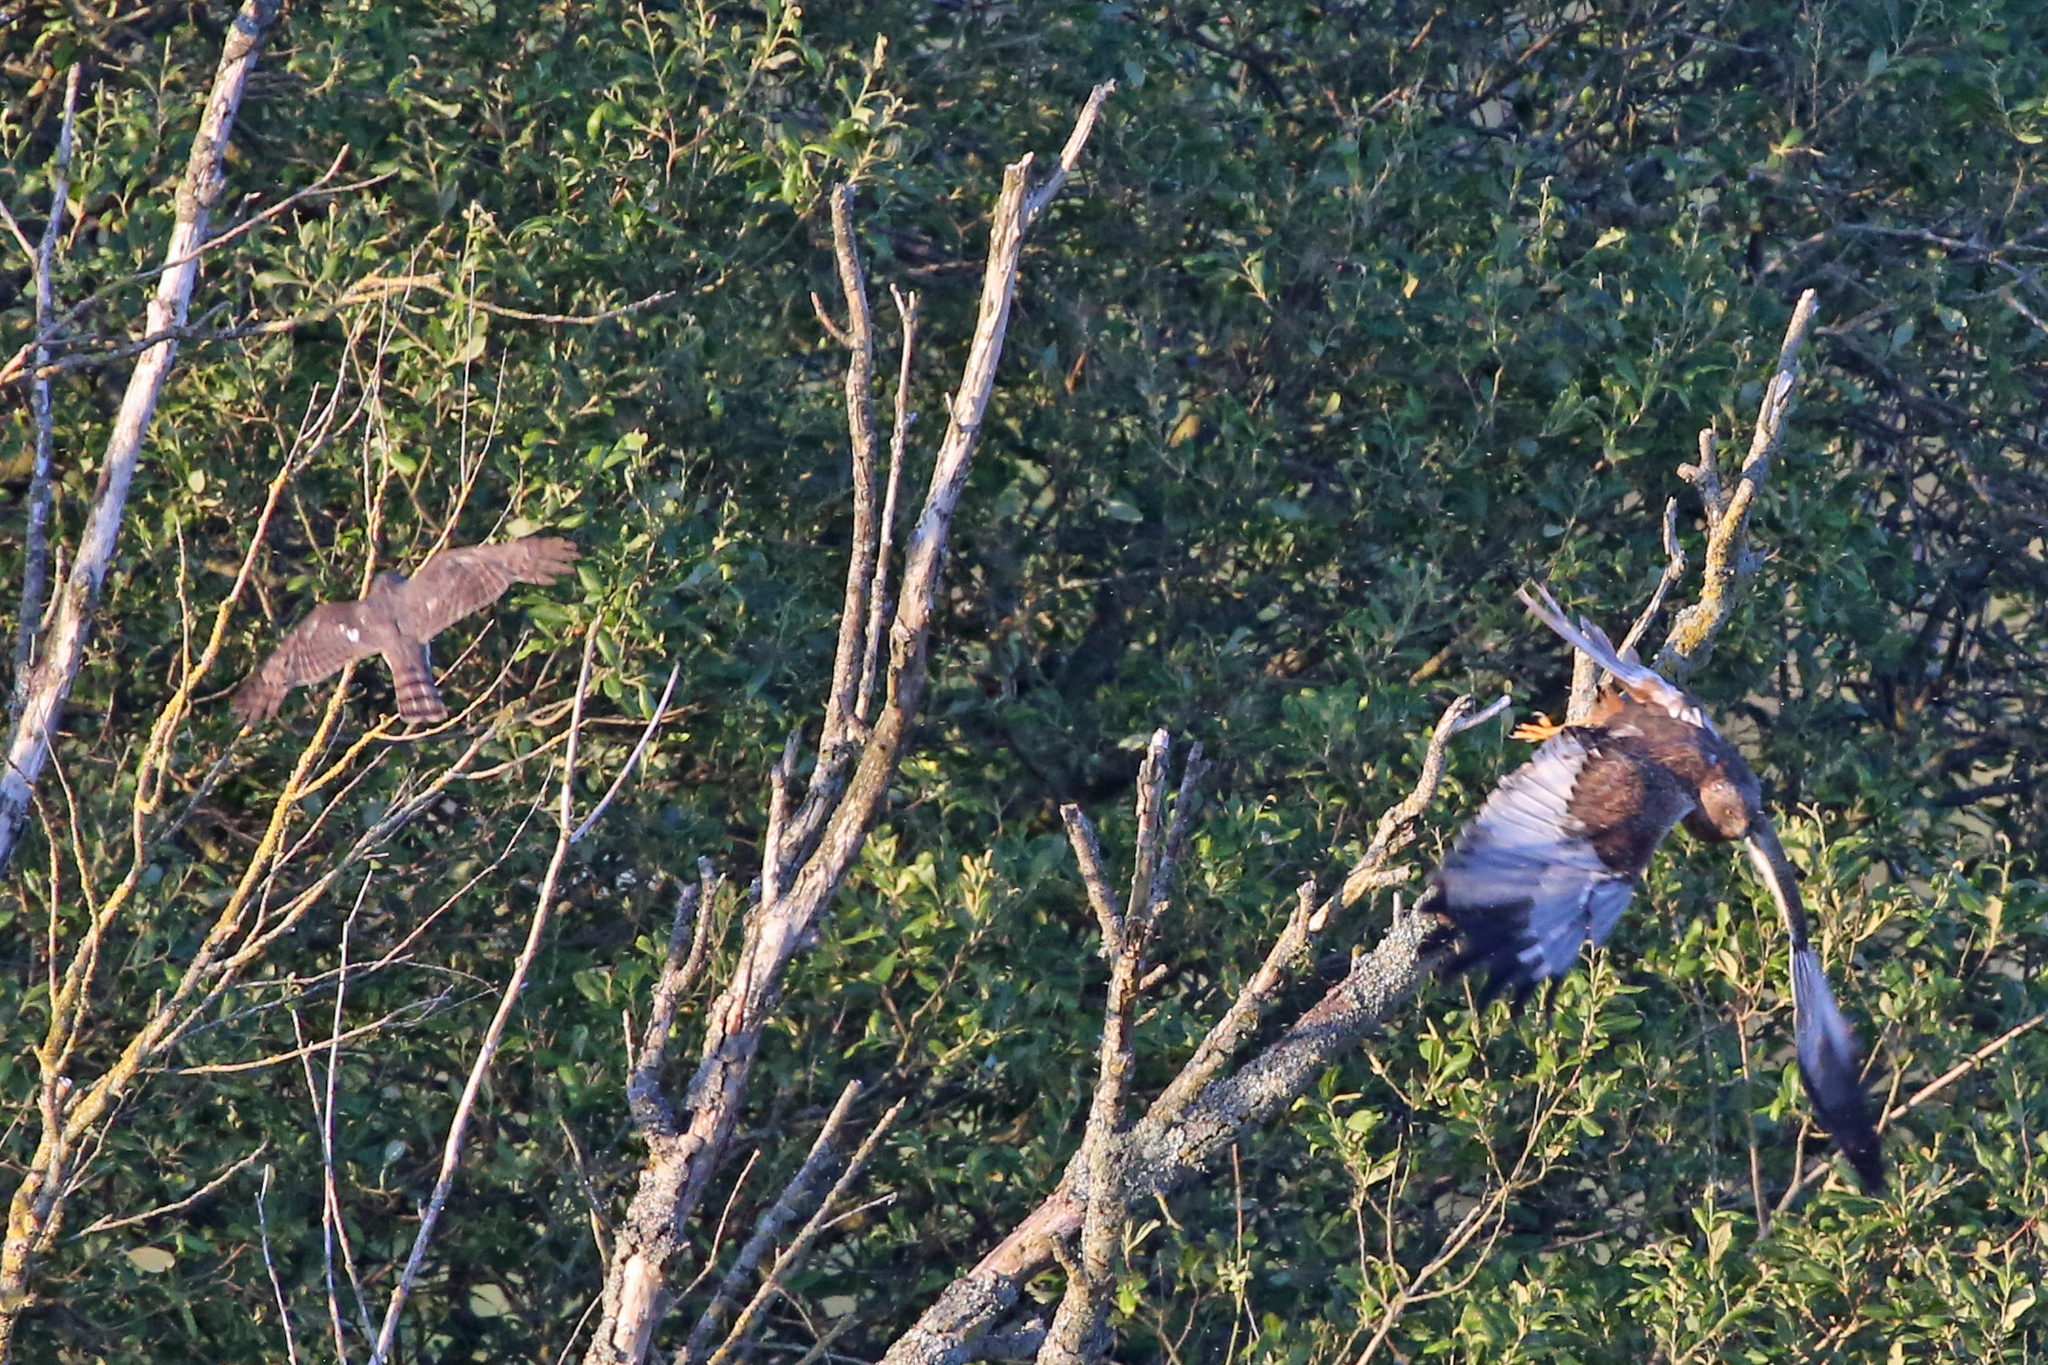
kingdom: Animalia
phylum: Chordata
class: Aves
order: Accipitriformes
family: Accipitridae
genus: Accipiter
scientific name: Accipiter nisus
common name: Eurasian sparrowhawk
